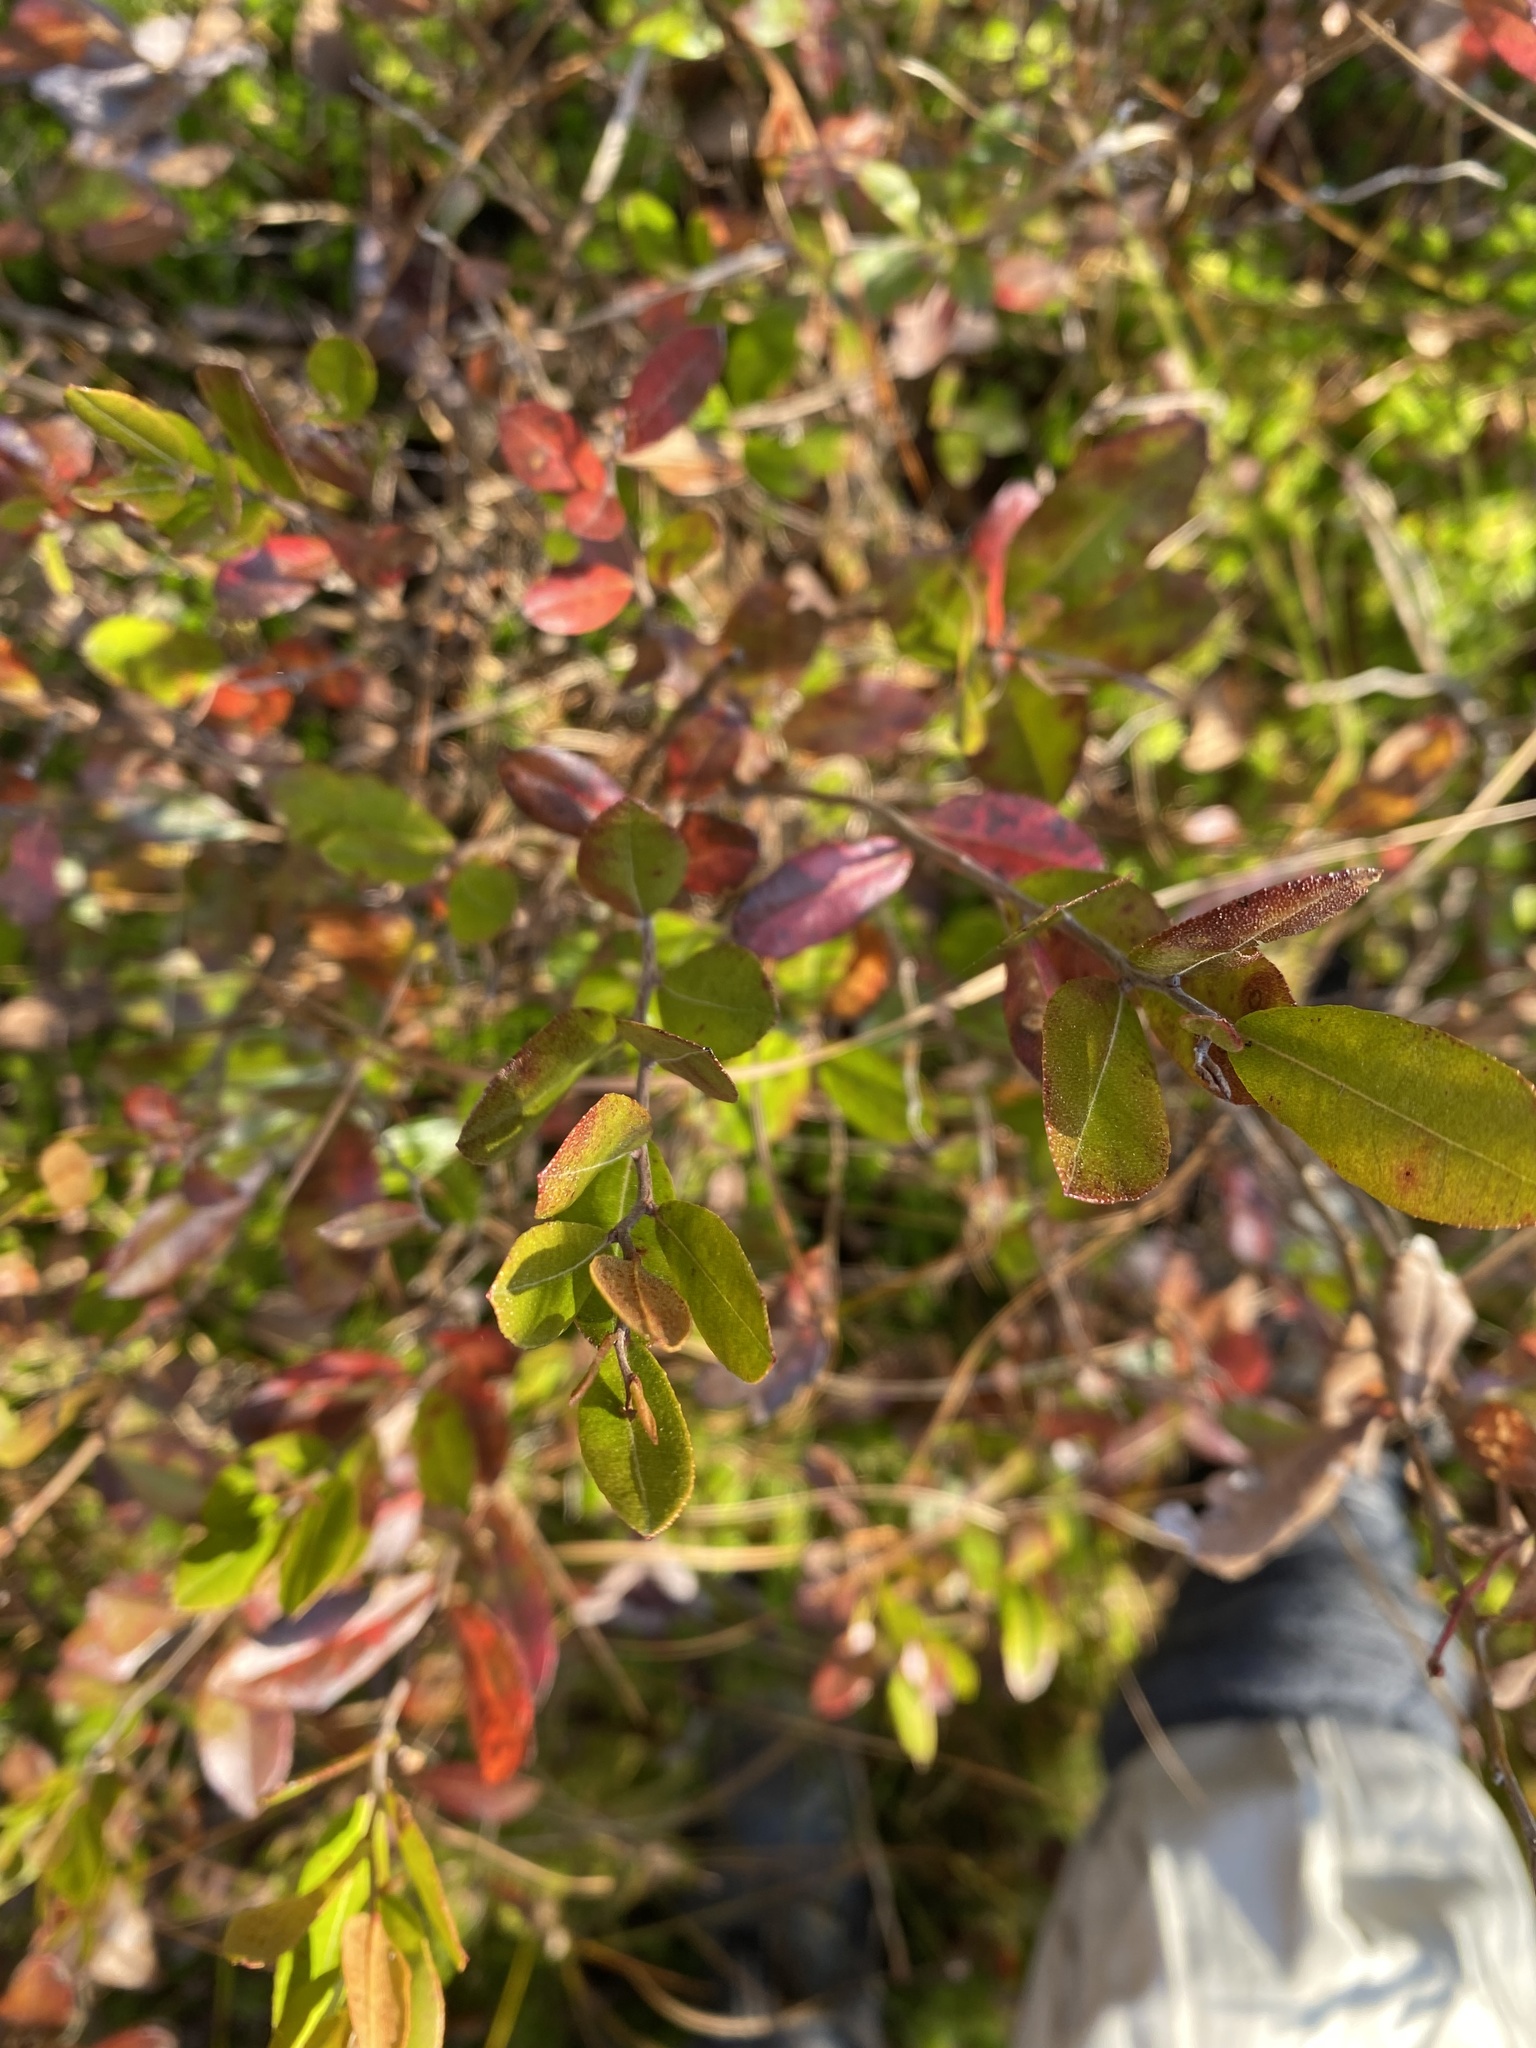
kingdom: Plantae
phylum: Tracheophyta
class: Magnoliopsida
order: Ericales
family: Ericaceae
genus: Chamaedaphne
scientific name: Chamaedaphne calyculata
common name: Leatherleaf
